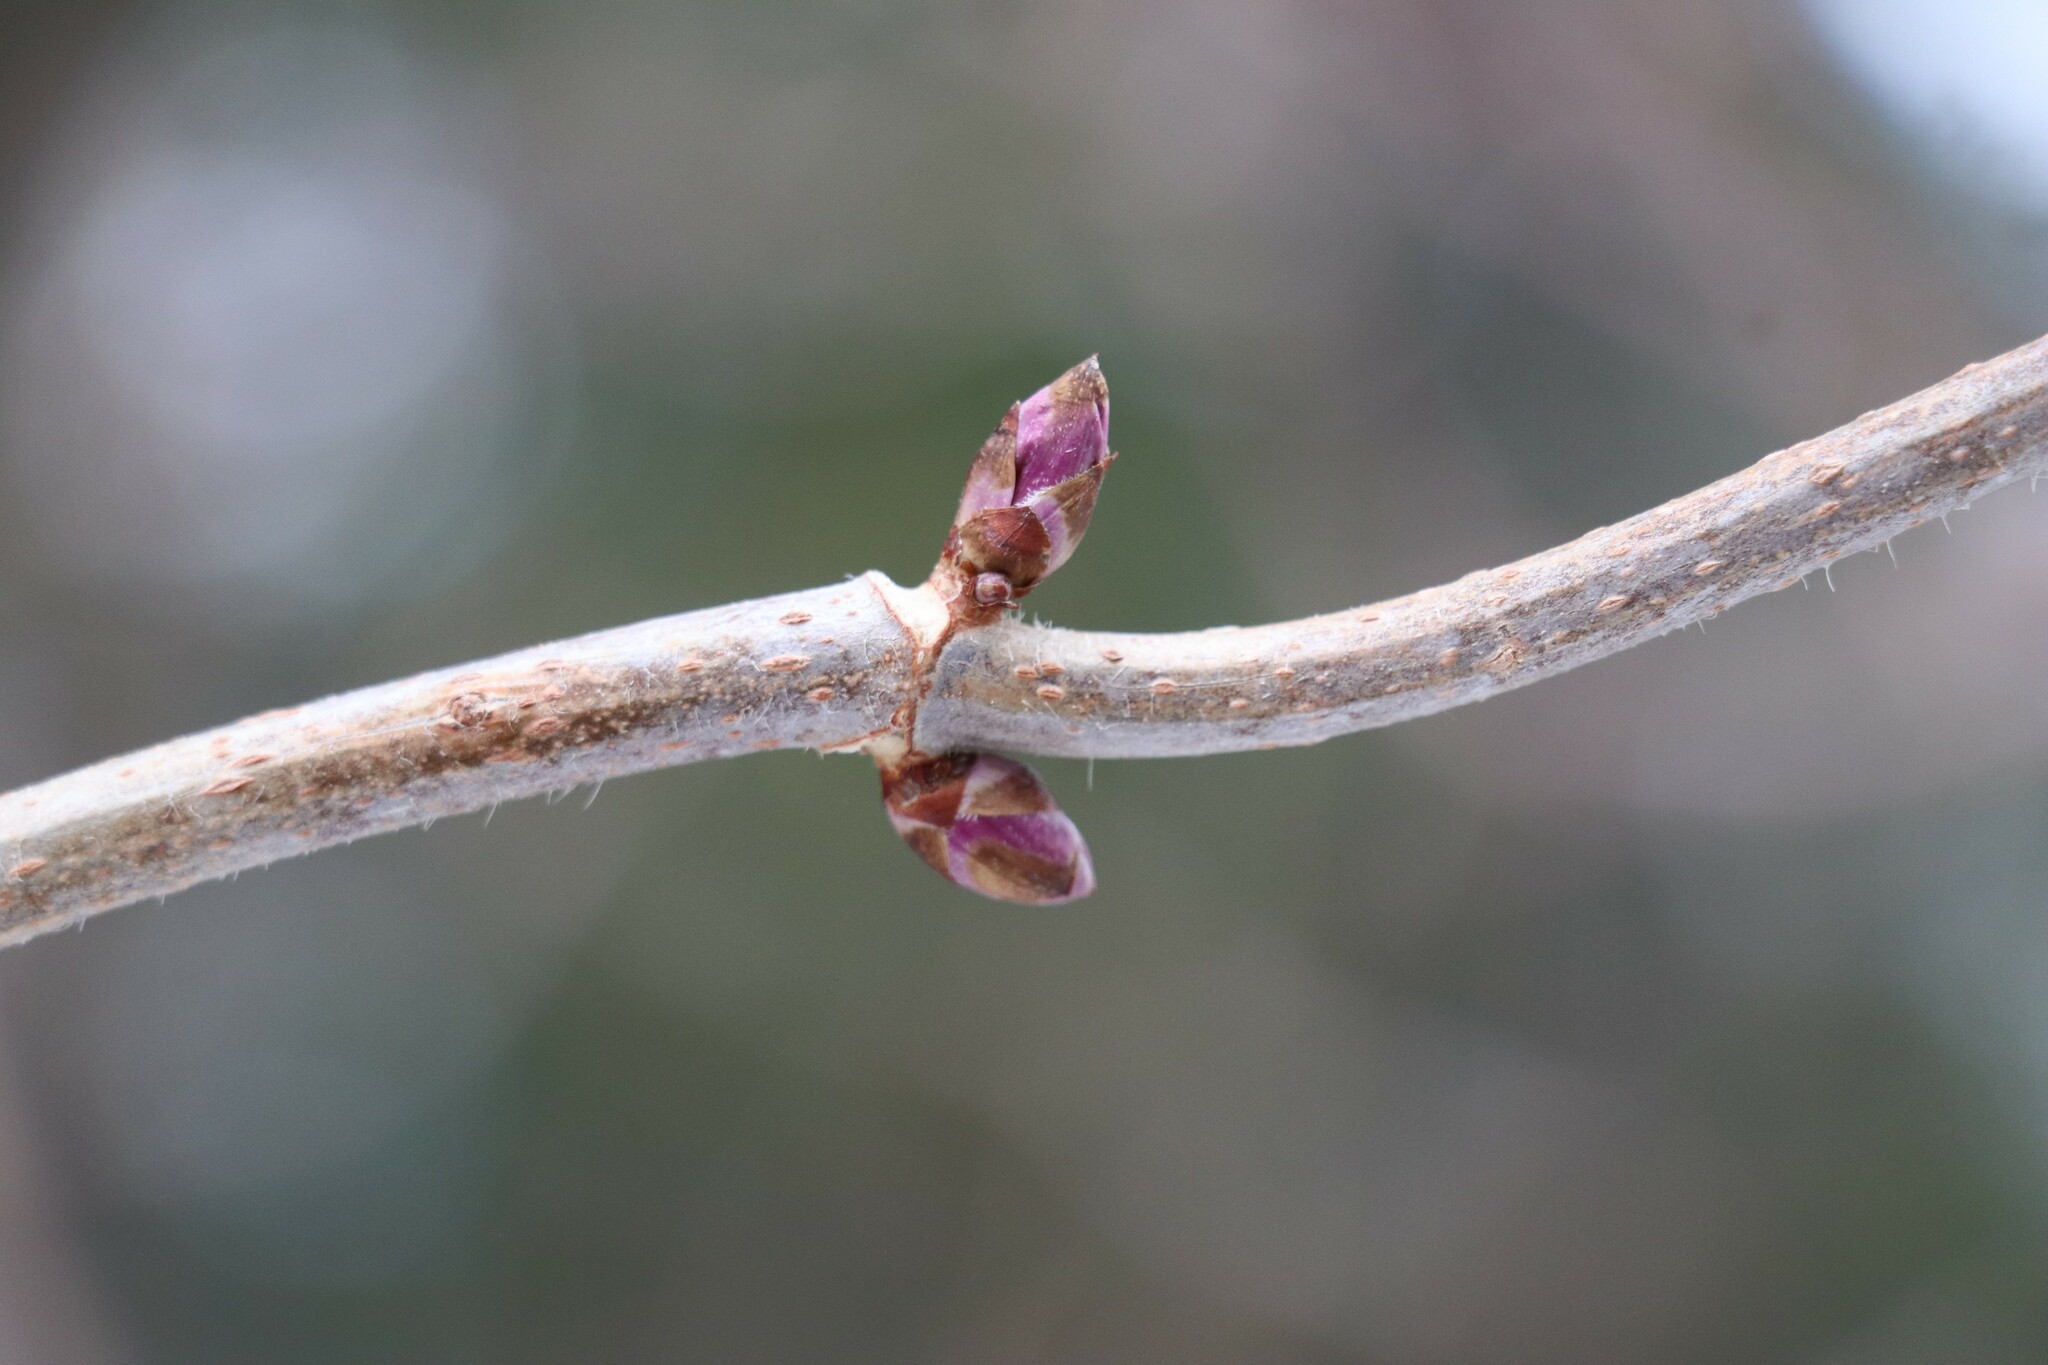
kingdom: Plantae
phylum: Tracheophyta
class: Magnoliopsida
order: Dipsacales
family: Viburnaceae
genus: Sambucus
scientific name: Sambucus sibirica
